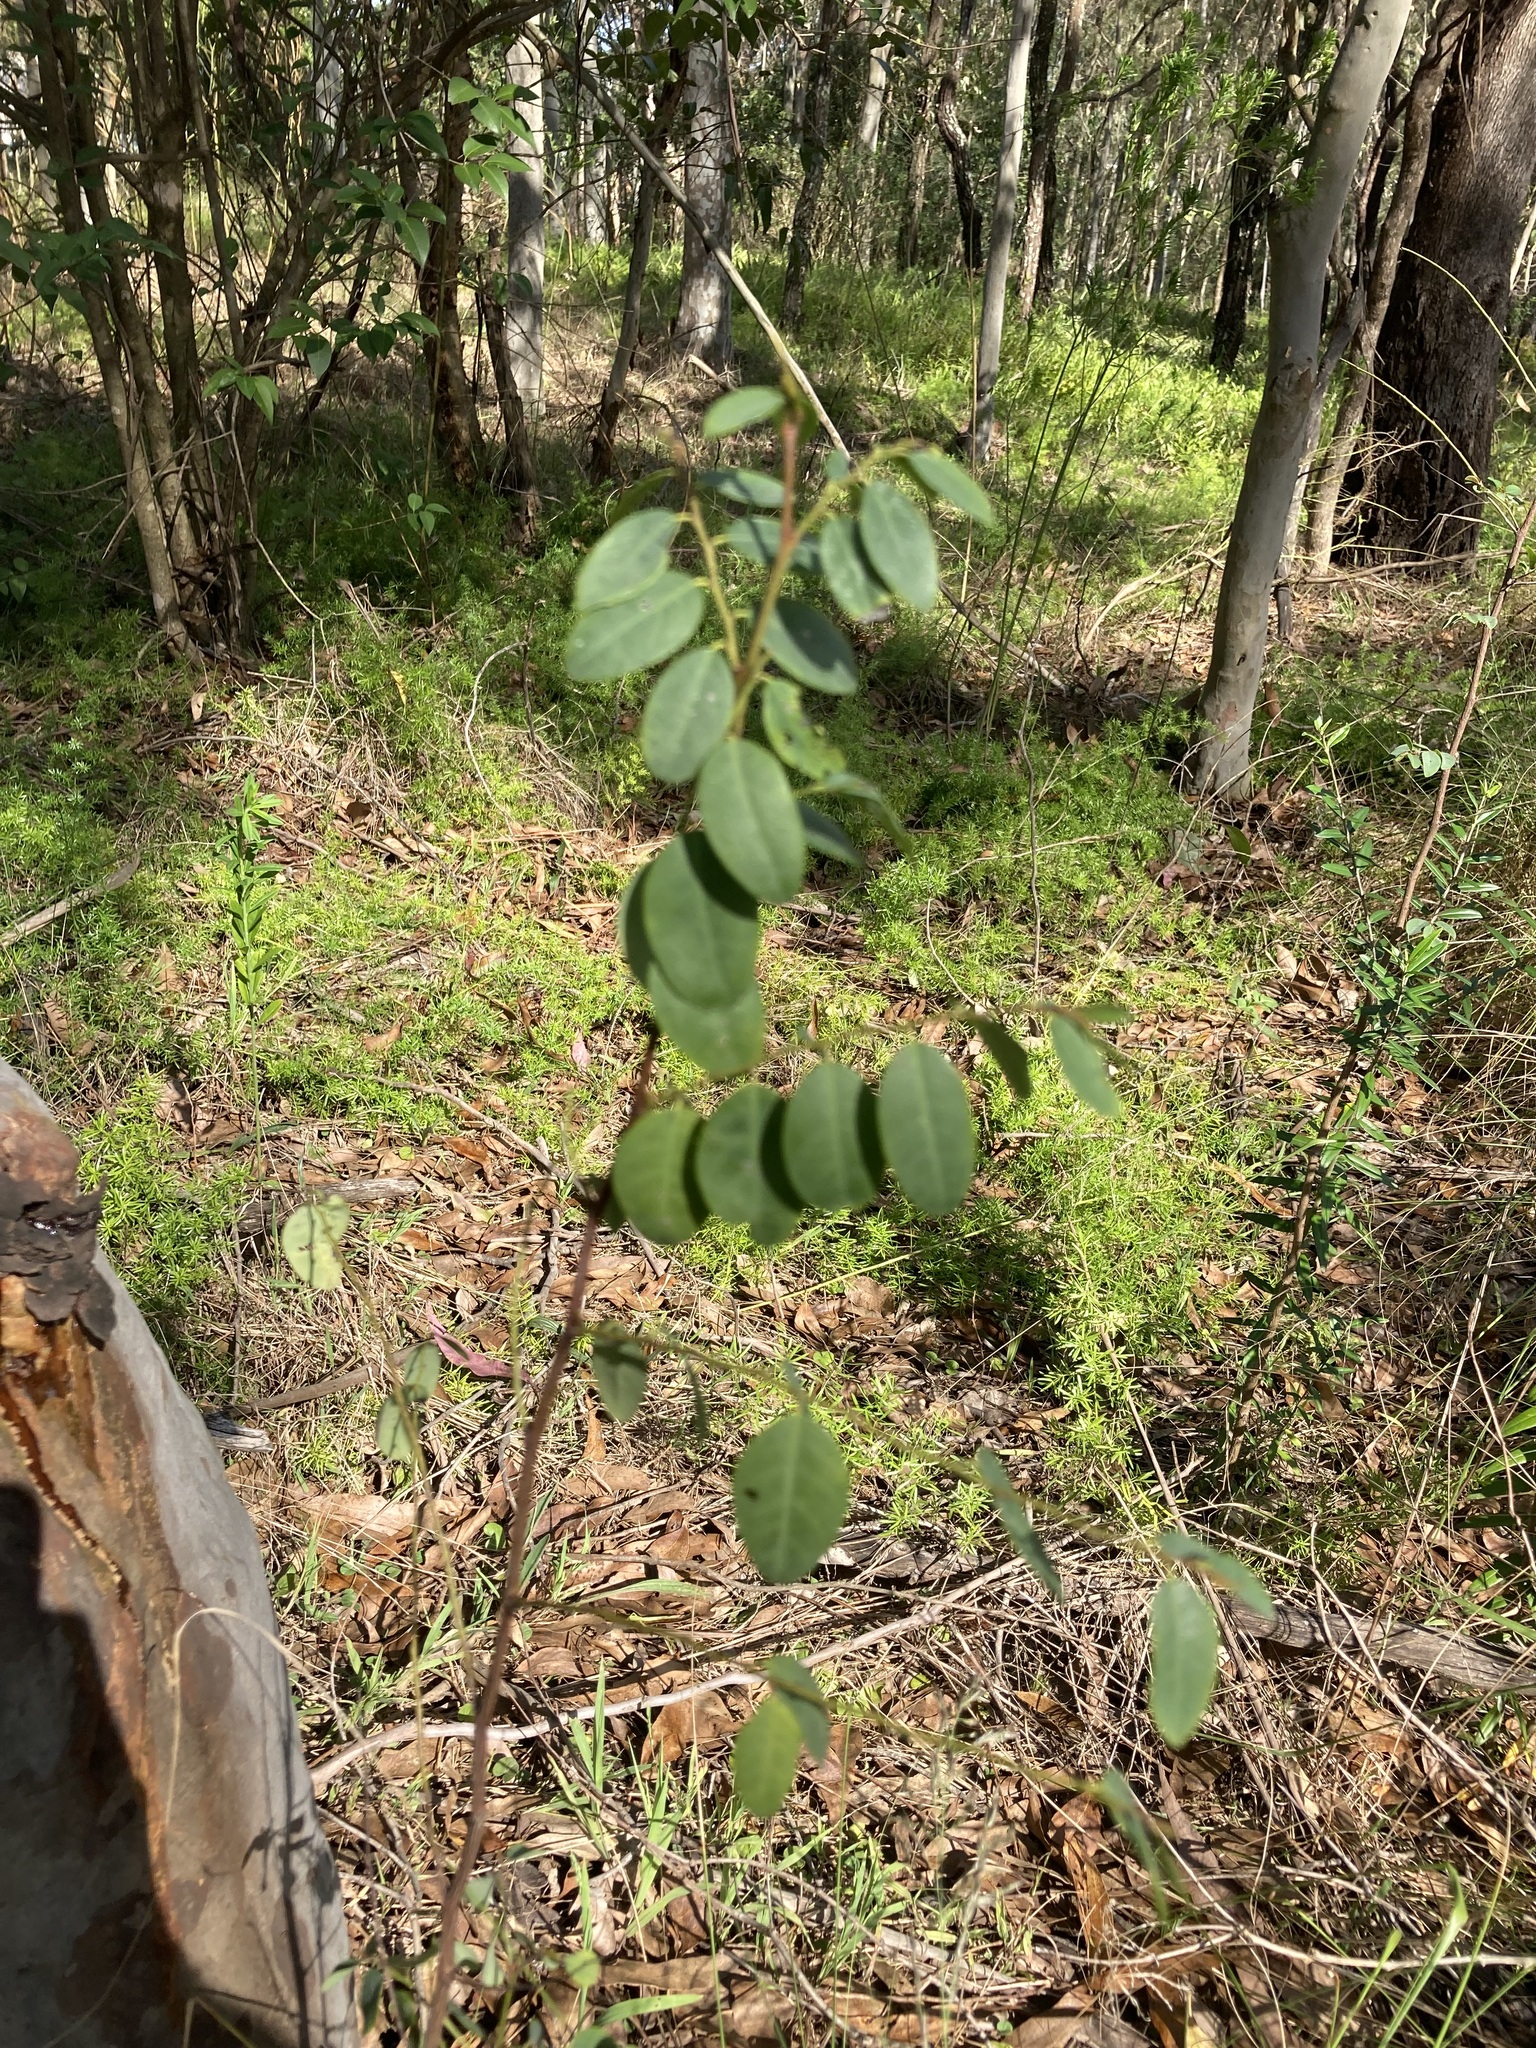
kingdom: Plantae
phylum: Tracheophyta
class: Magnoliopsida
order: Malpighiales
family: Phyllanthaceae
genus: Breynia
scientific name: Breynia oblongifolia
